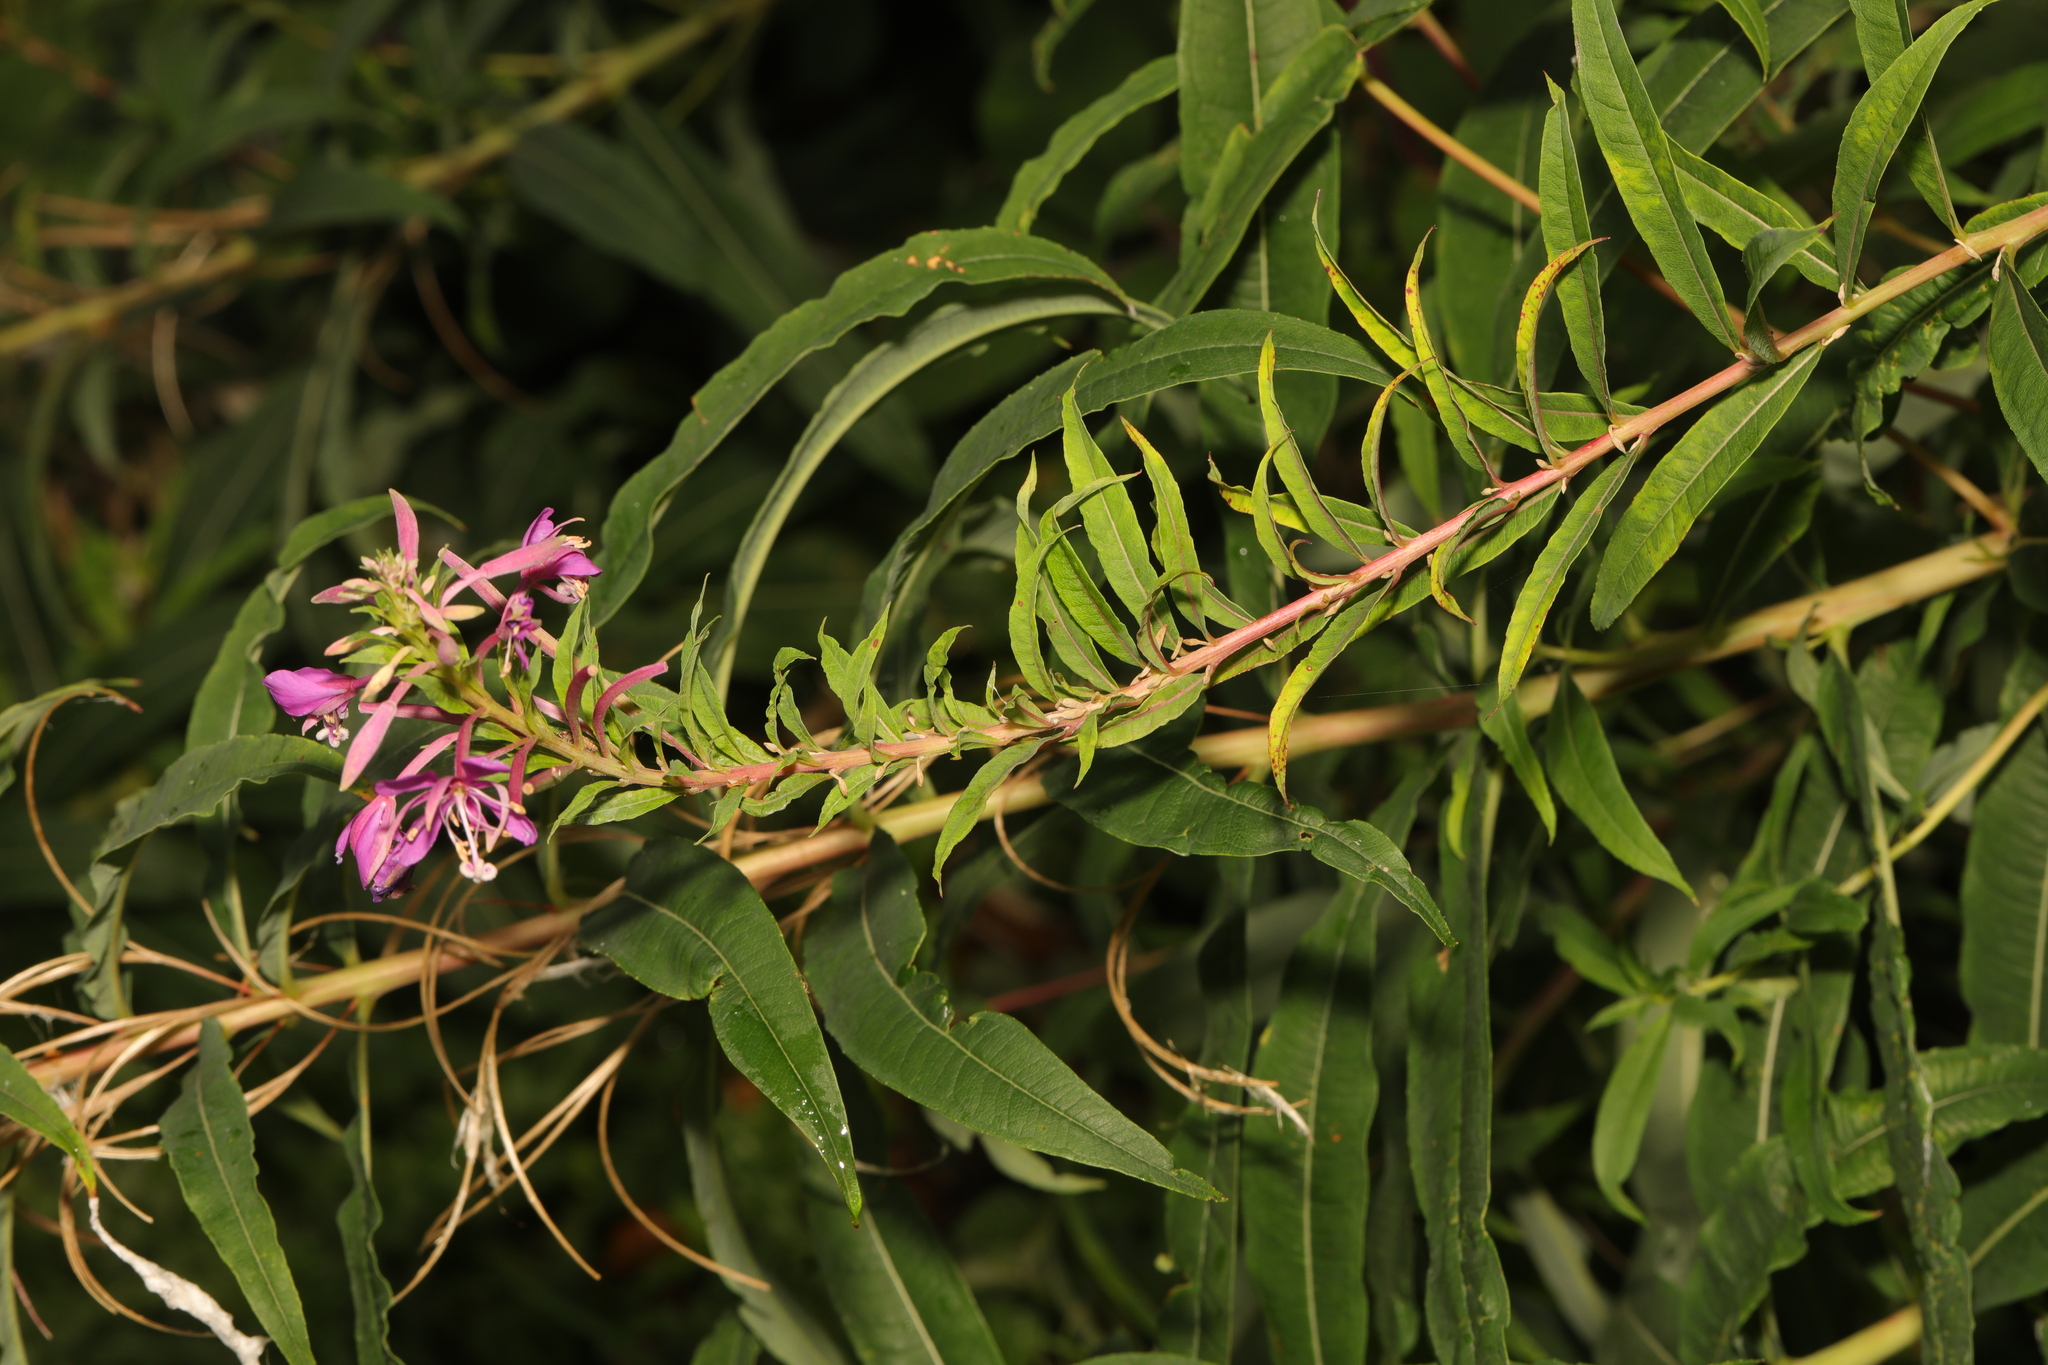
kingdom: Plantae
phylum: Tracheophyta
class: Magnoliopsida
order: Myrtales
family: Onagraceae
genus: Chamaenerion
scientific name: Chamaenerion angustifolium
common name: Fireweed
